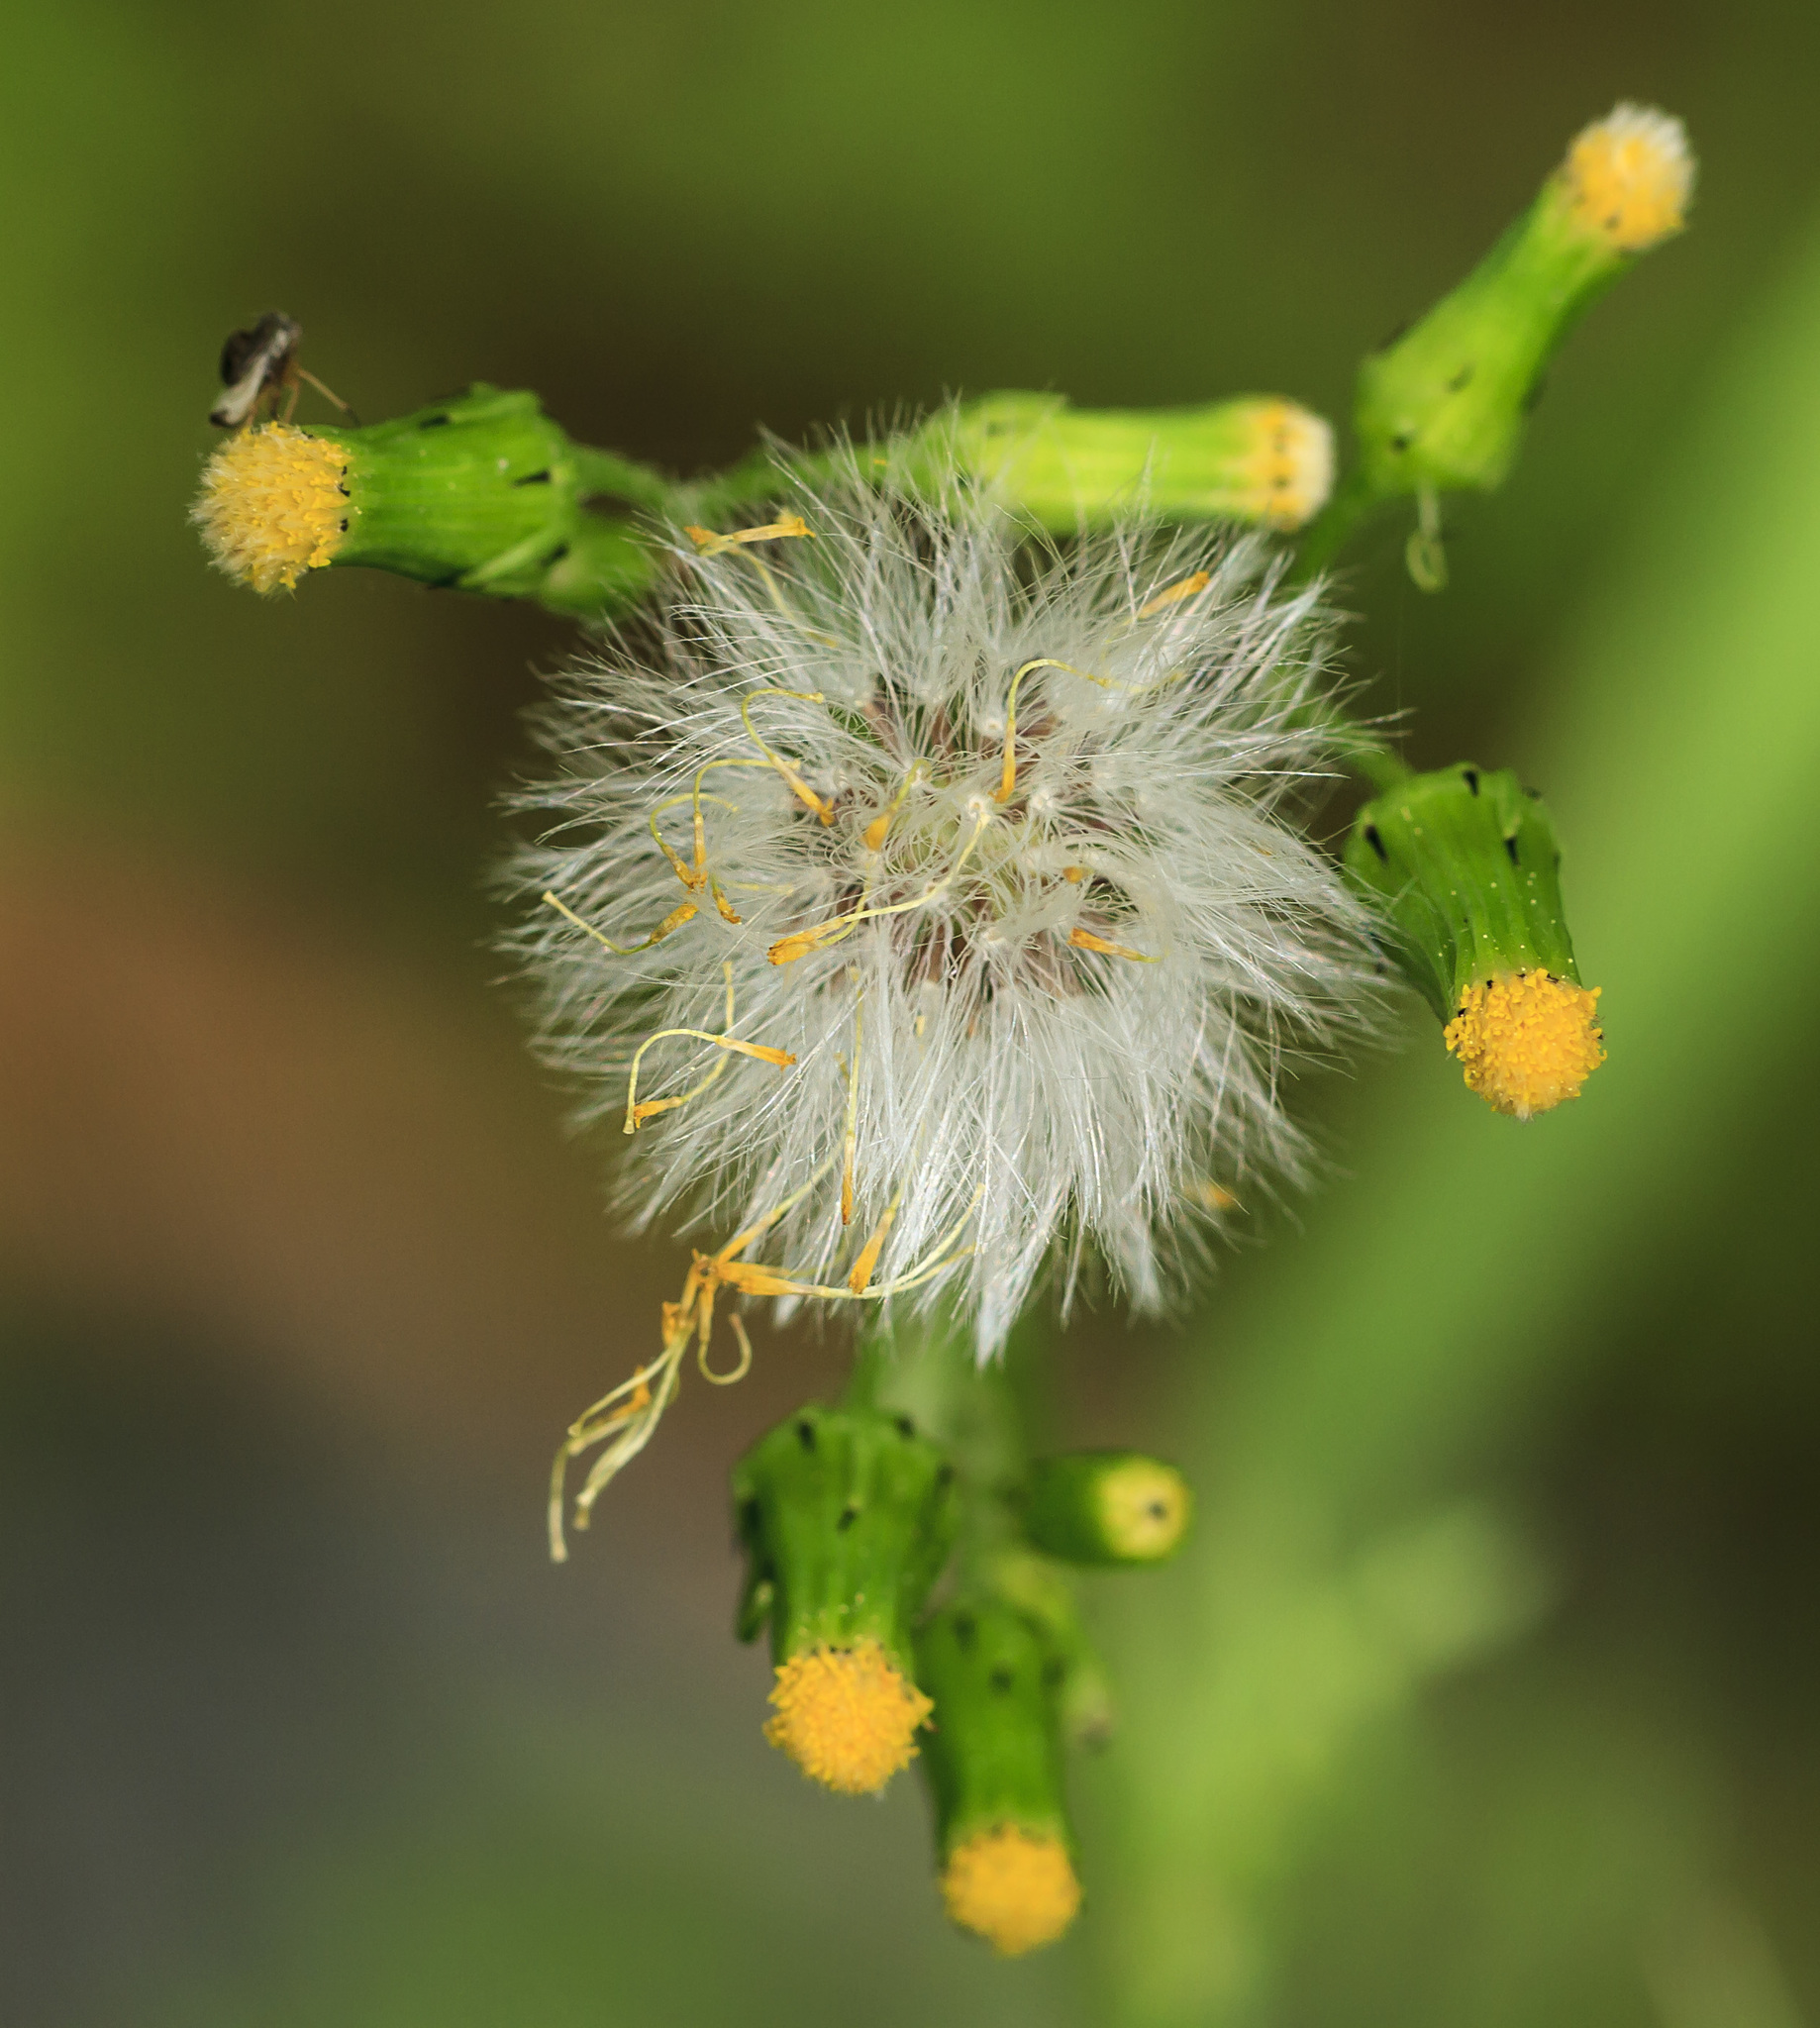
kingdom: Plantae
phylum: Tracheophyta
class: Magnoliopsida
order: Asterales
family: Asteraceae
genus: Senecio
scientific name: Senecio vulgaris
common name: Old-man-in-the-spring
